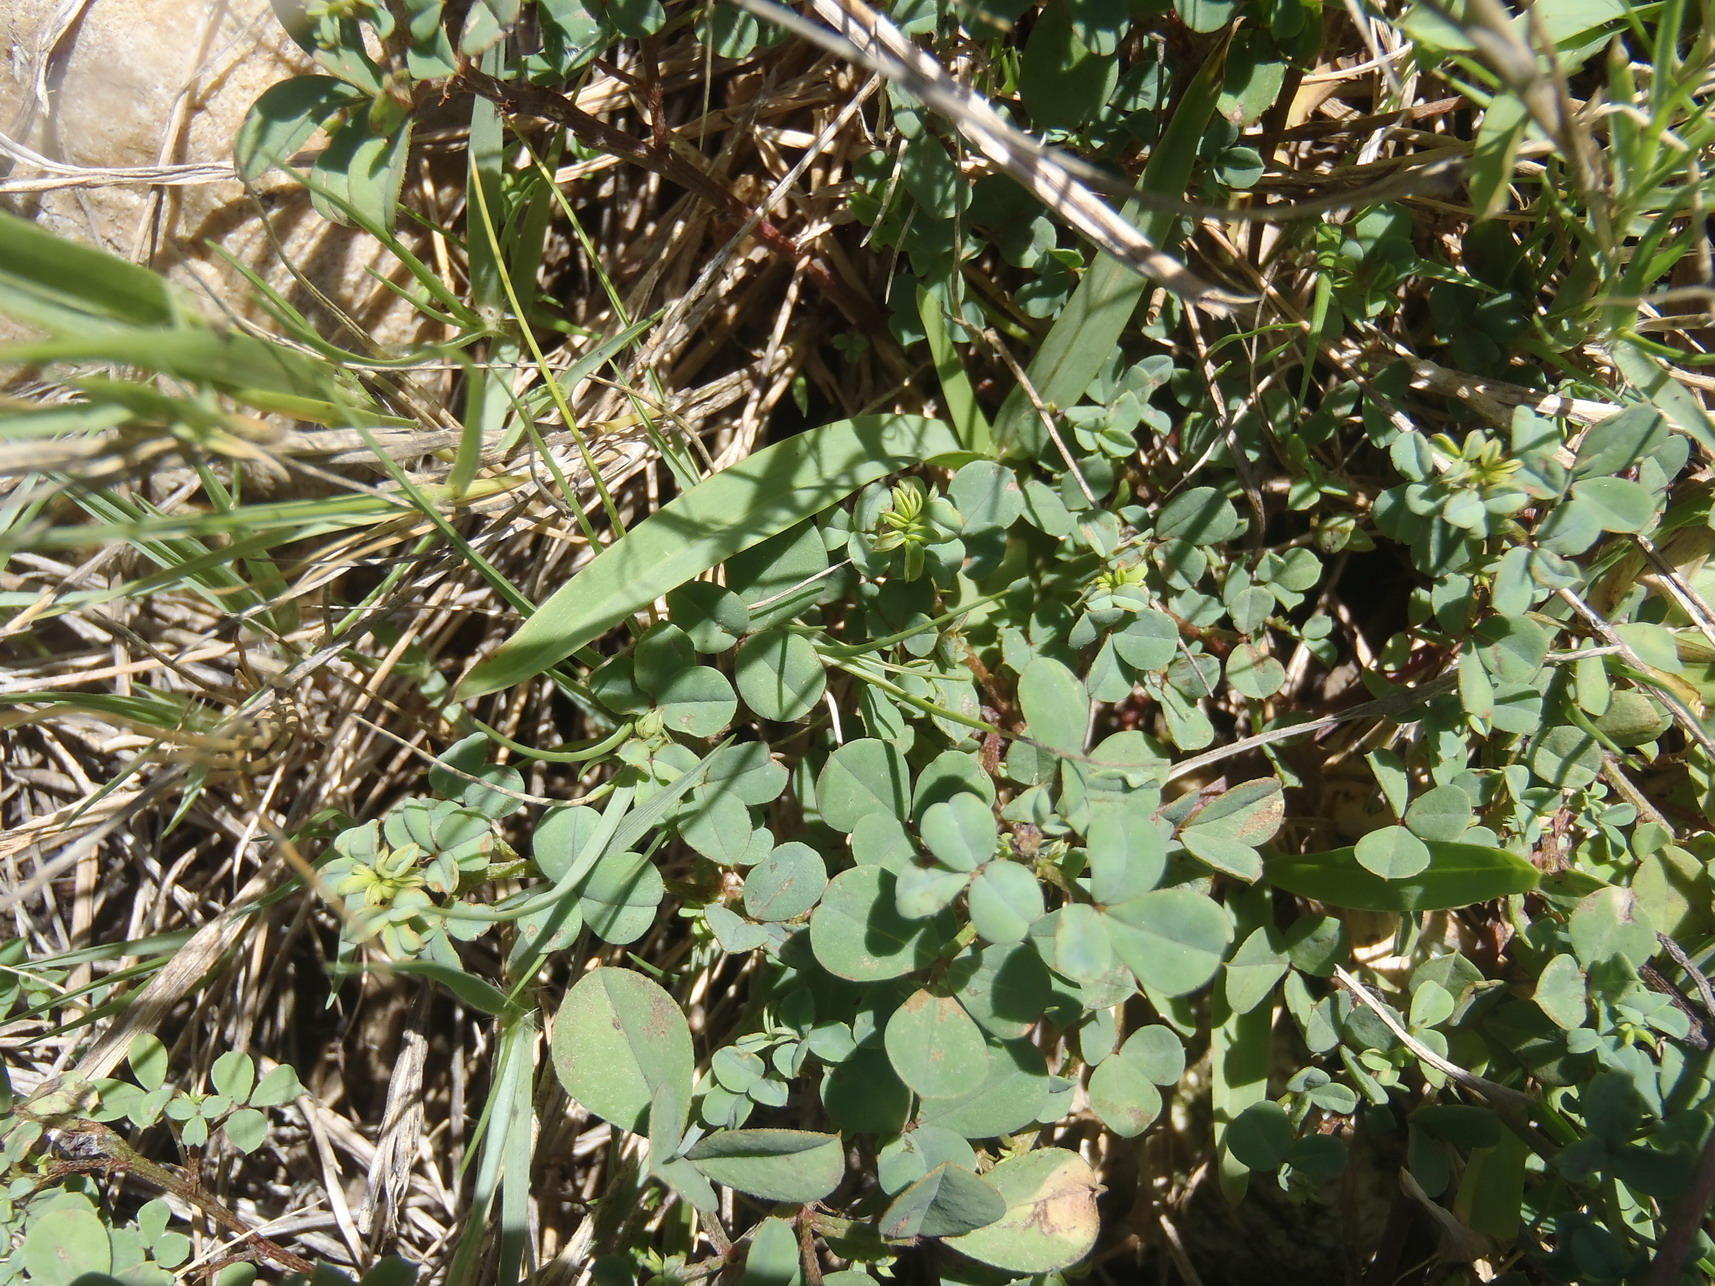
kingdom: Plantae
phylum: Tracheophyta
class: Magnoliopsida
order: Fabales
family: Fabaceae
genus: Indigofera
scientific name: Indigofera erecta
